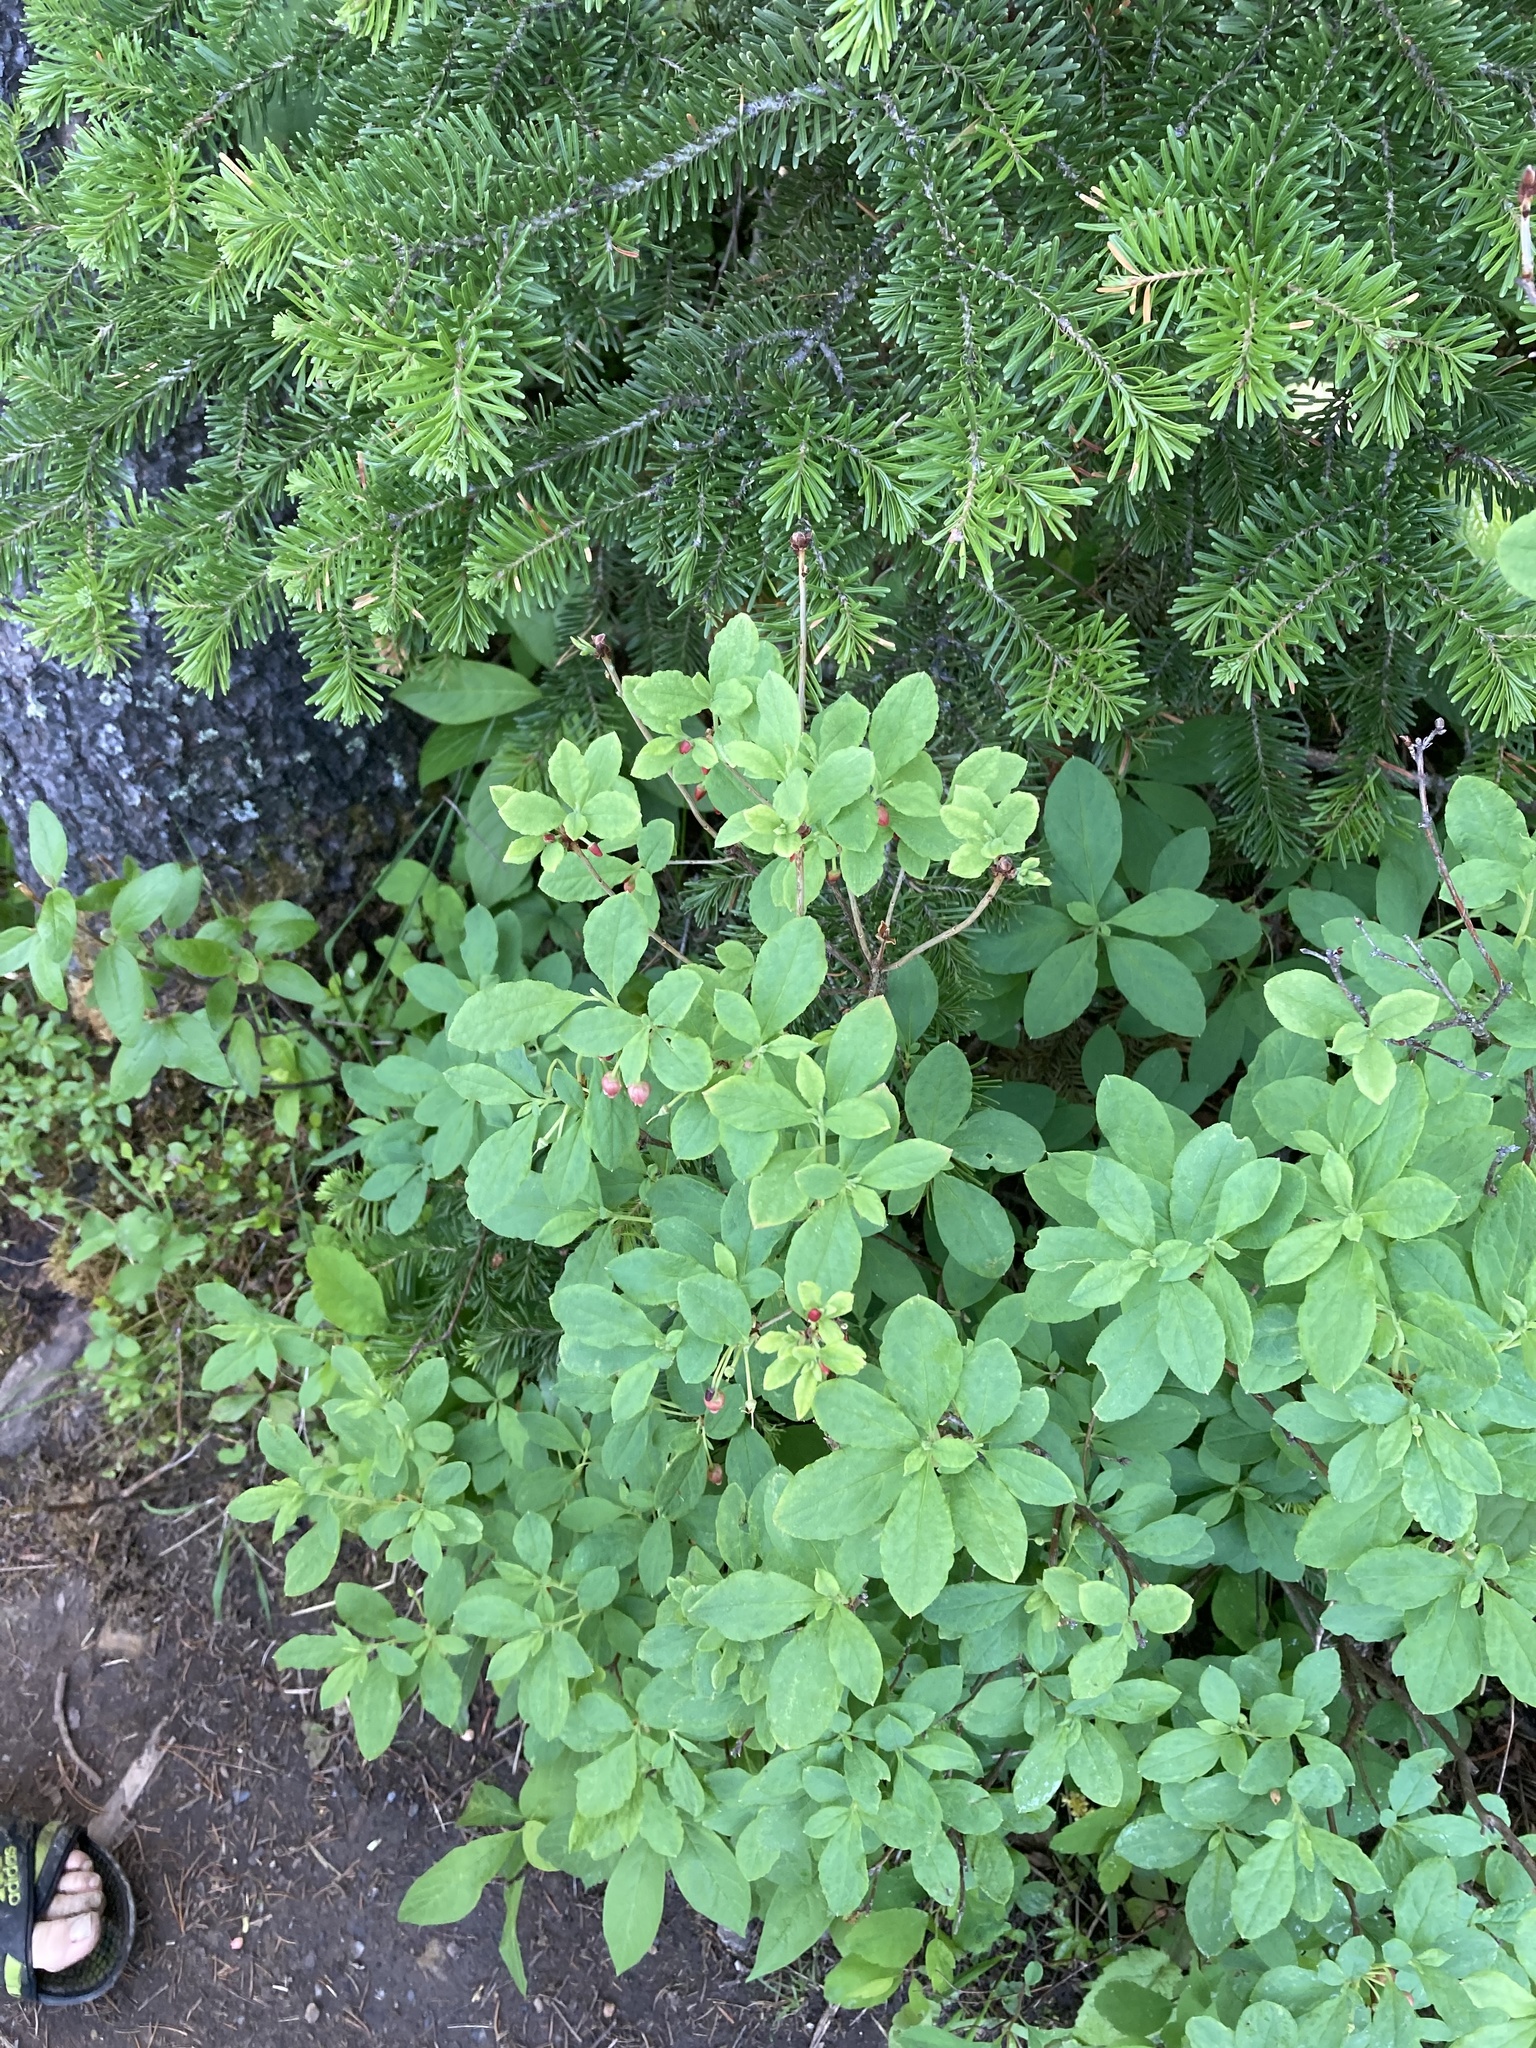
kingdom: Plantae
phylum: Tracheophyta
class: Magnoliopsida
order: Ericales
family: Ericaceae
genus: Rhododendron
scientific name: Rhododendron menziesii
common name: Pacific menziesia
